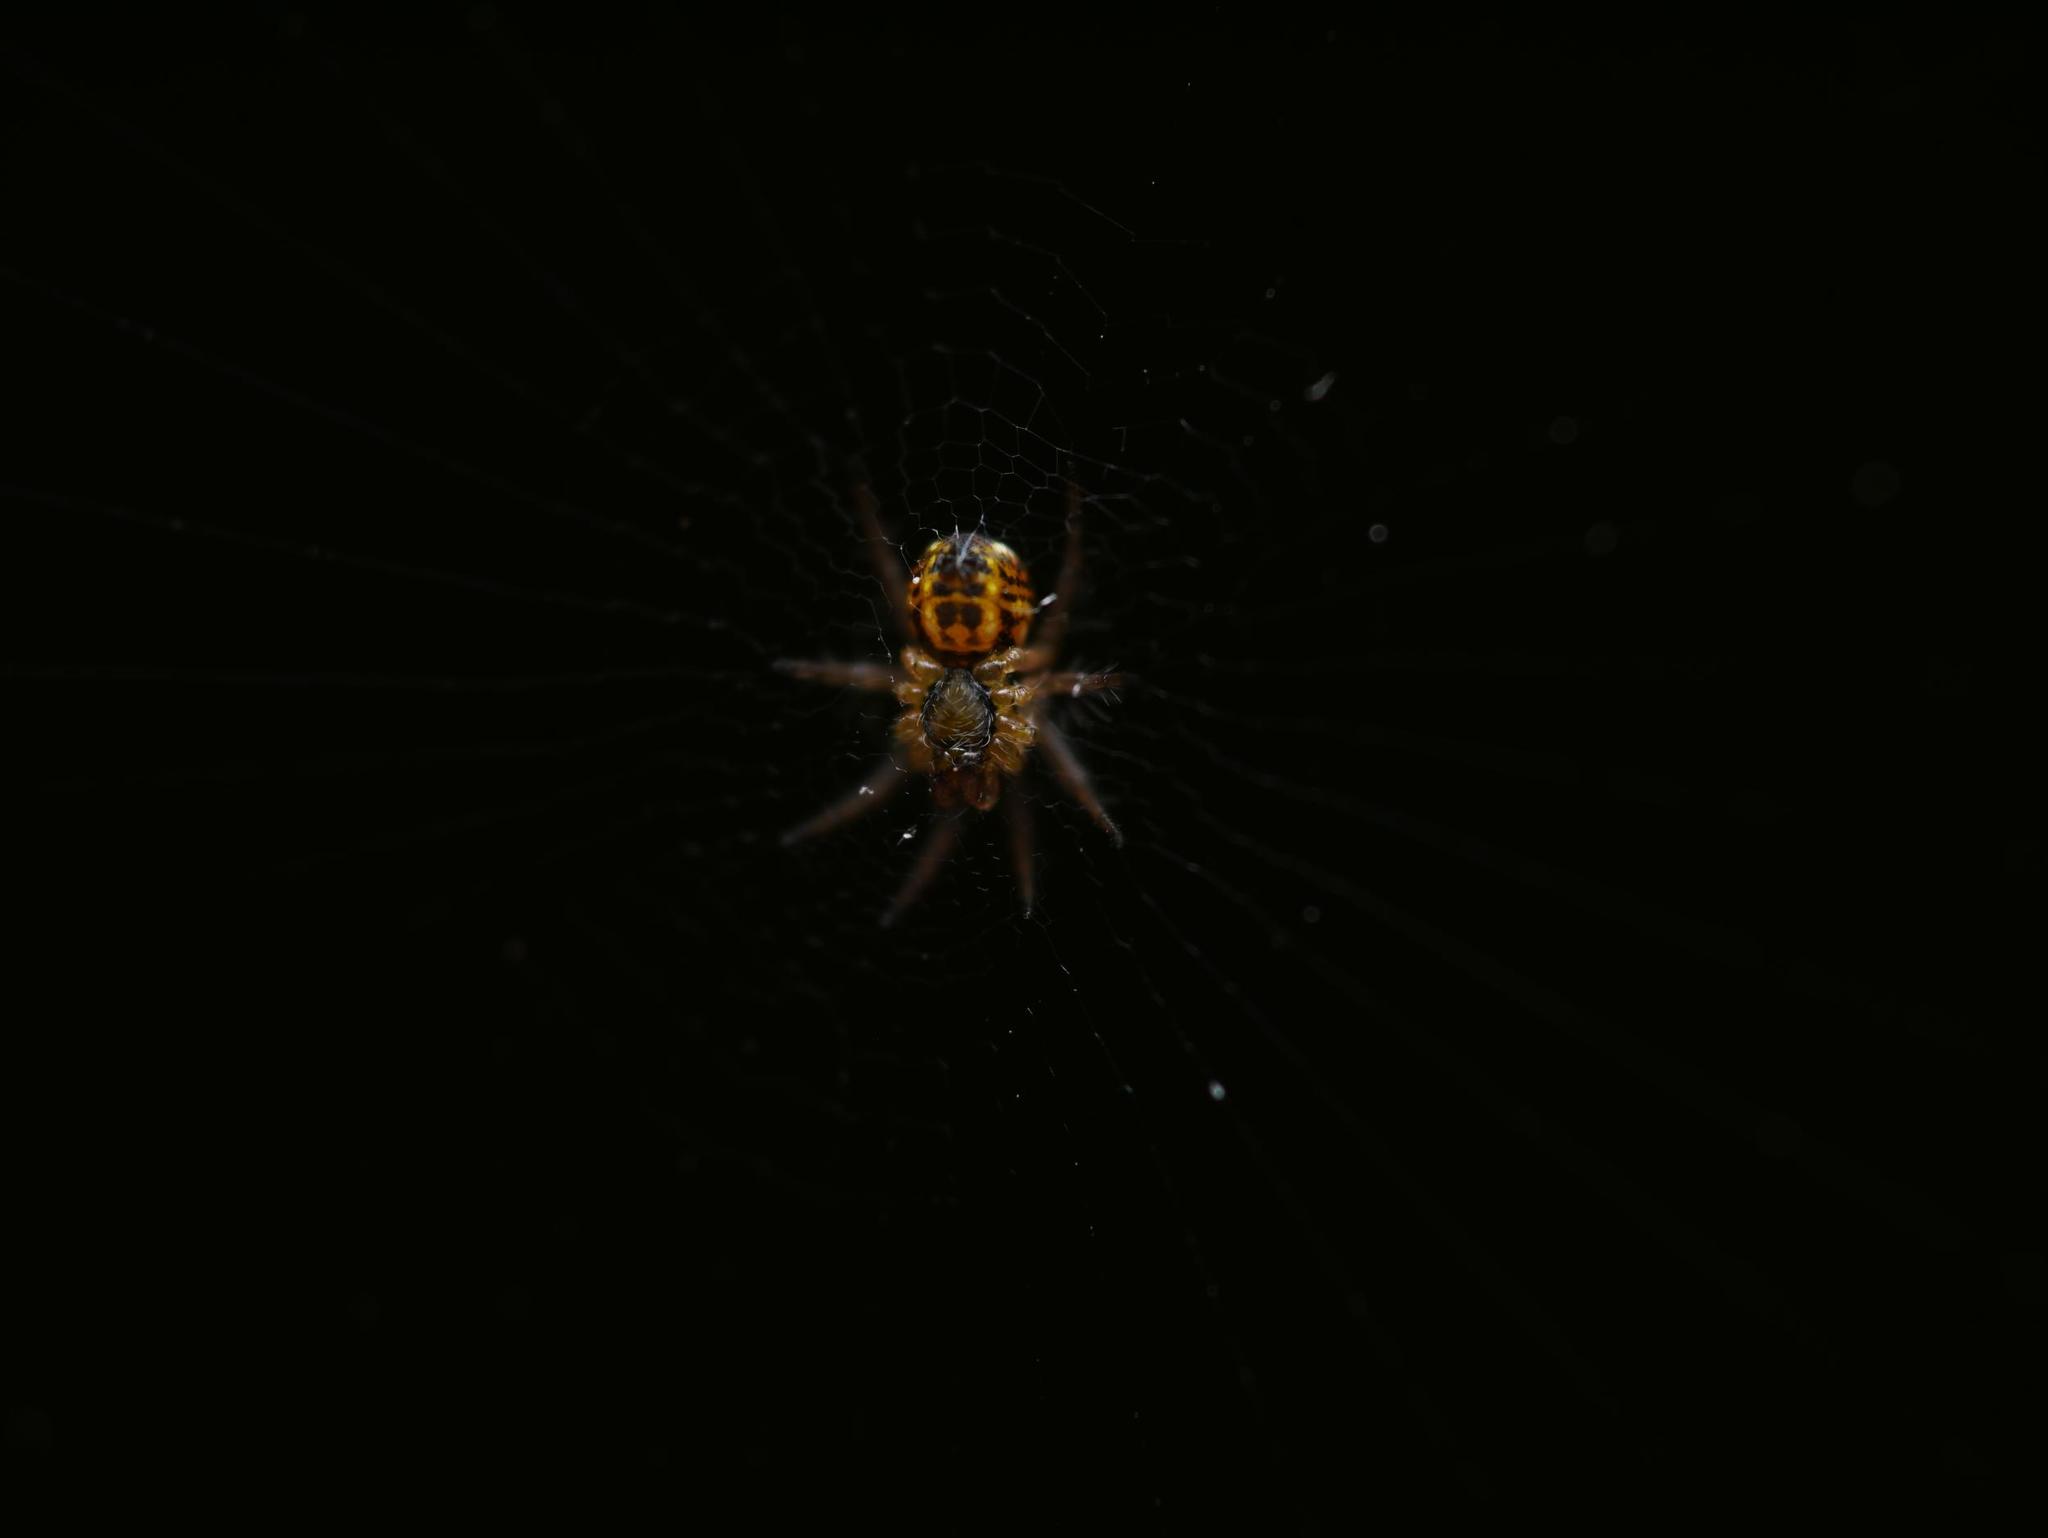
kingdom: Animalia
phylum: Arthropoda
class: Arachnida
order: Araneae
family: Araneidae
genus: Mangora
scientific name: Mangora acalypha
